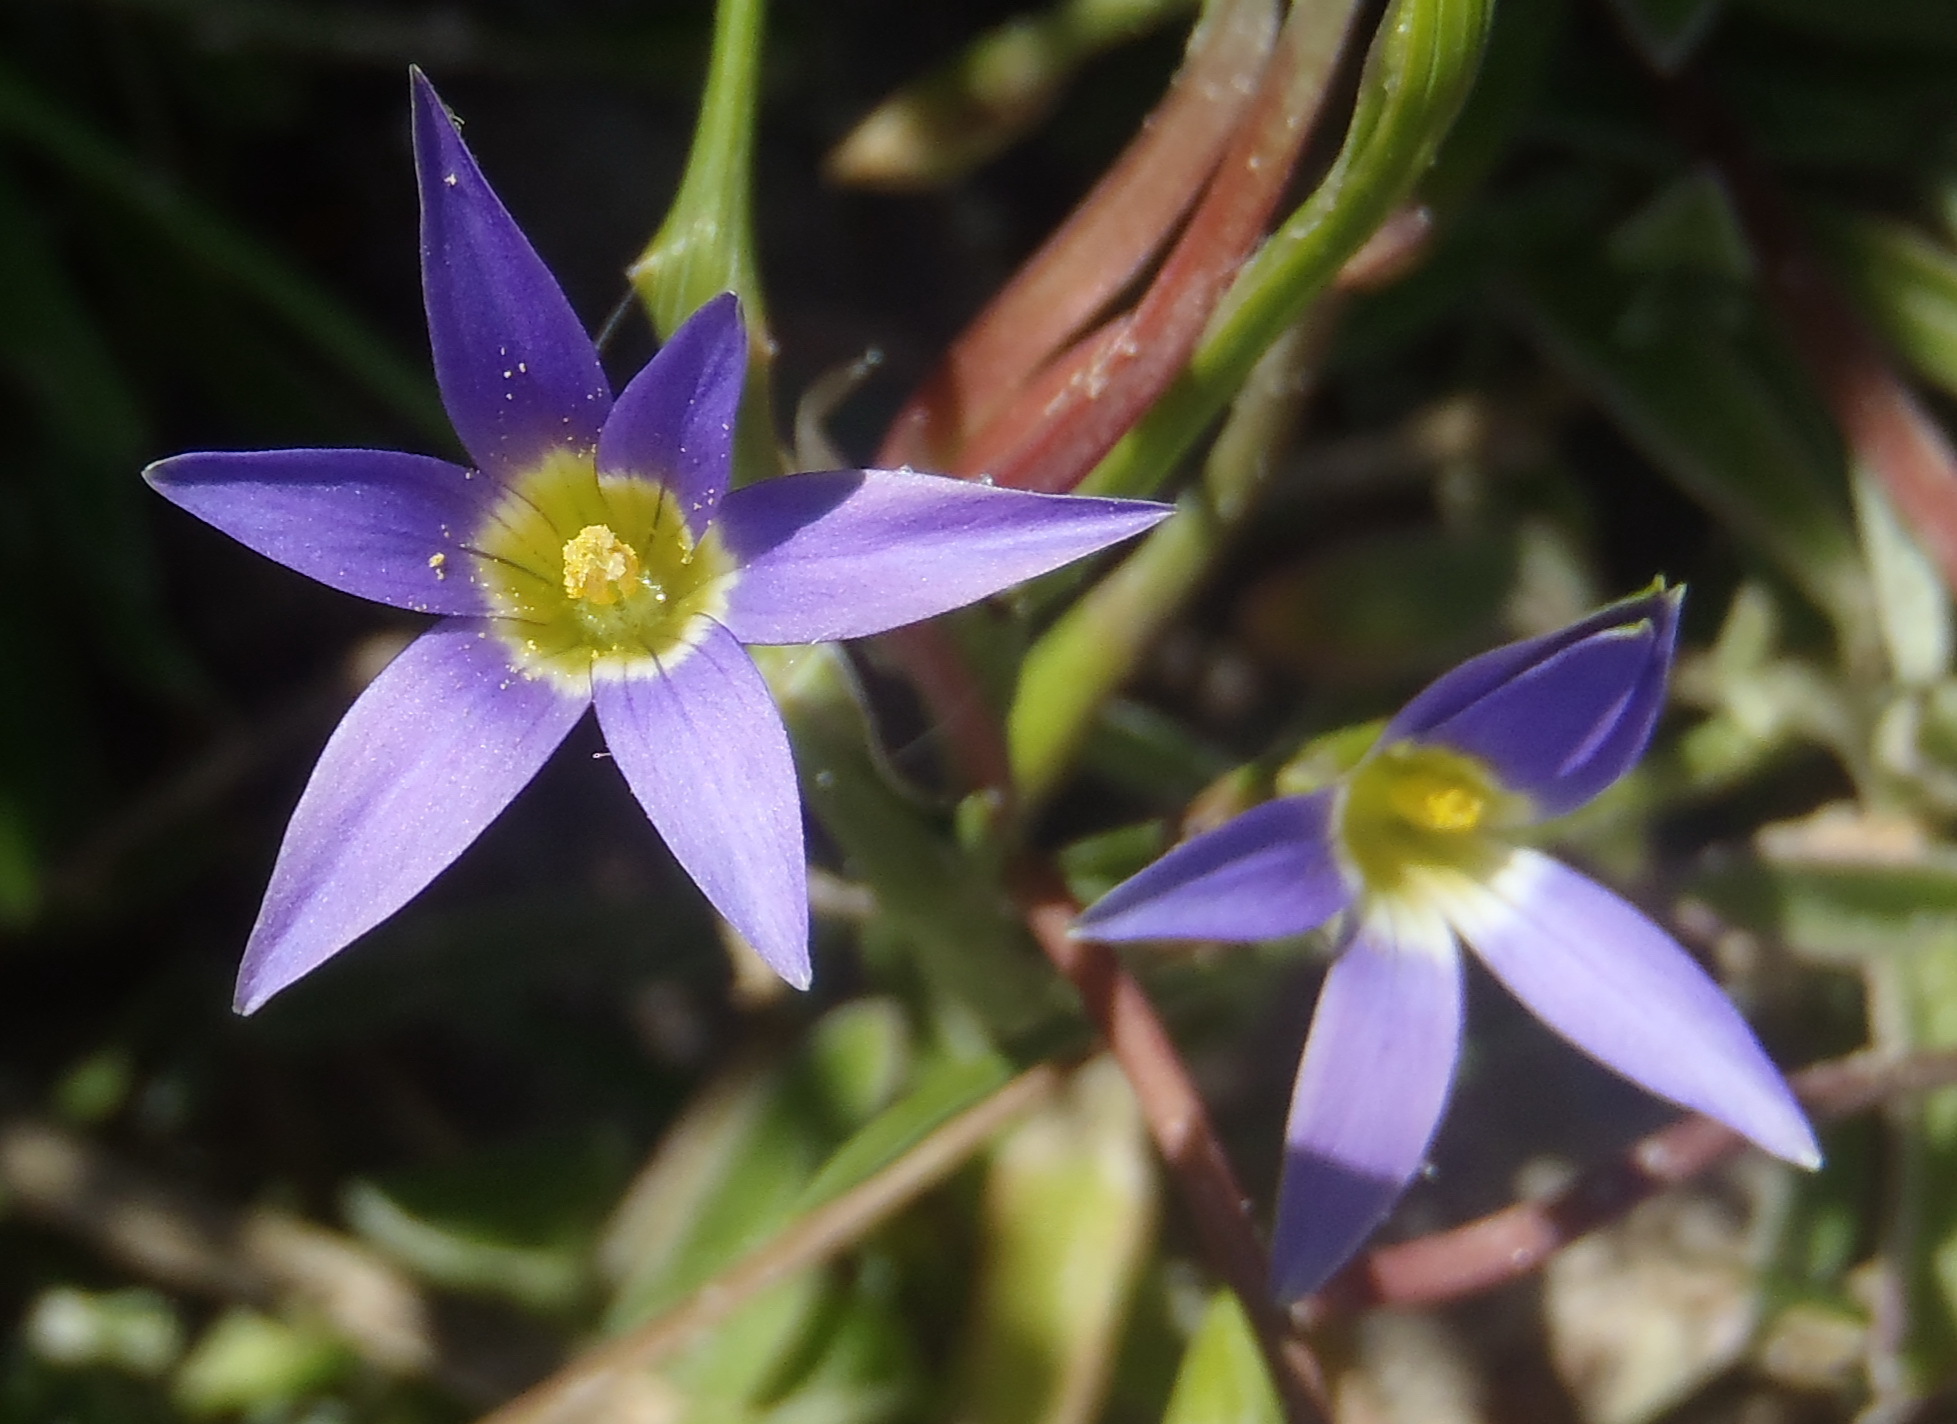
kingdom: Plantae
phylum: Tracheophyta
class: Liliopsida
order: Asparagales
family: Iridaceae
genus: Romulea
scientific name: Romulea tabularis
